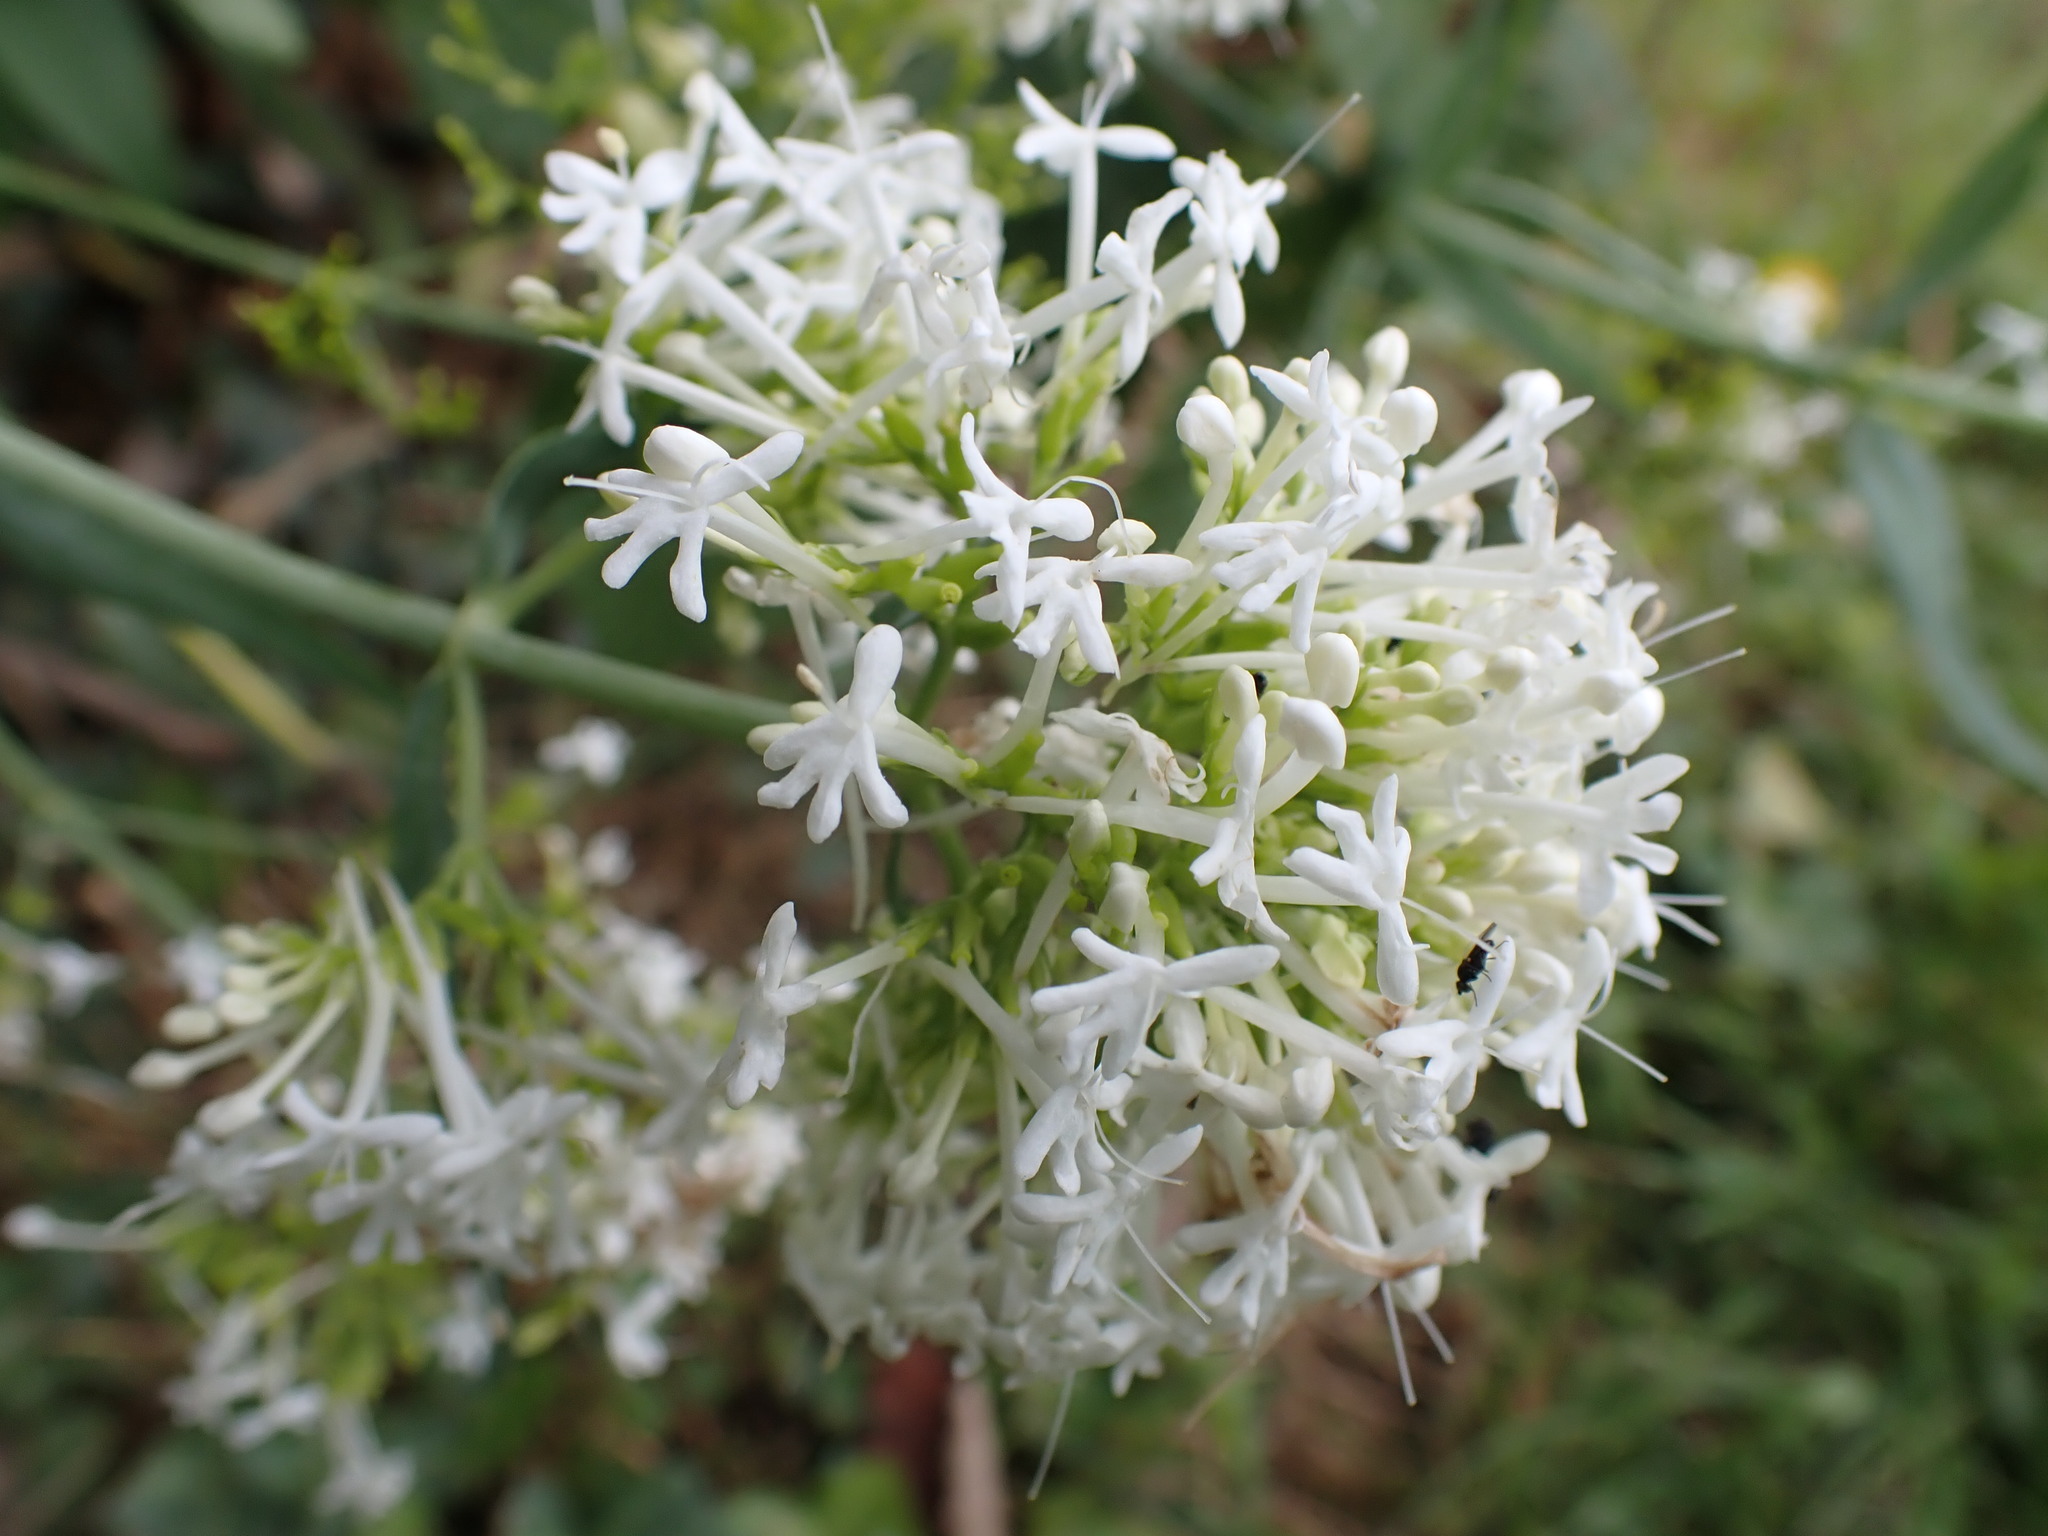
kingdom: Plantae
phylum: Tracheophyta
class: Magnoliopsida
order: Dipsacales
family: Caprifoliaceae
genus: Centranthus
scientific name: Centranthus ruber
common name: Red valerian
